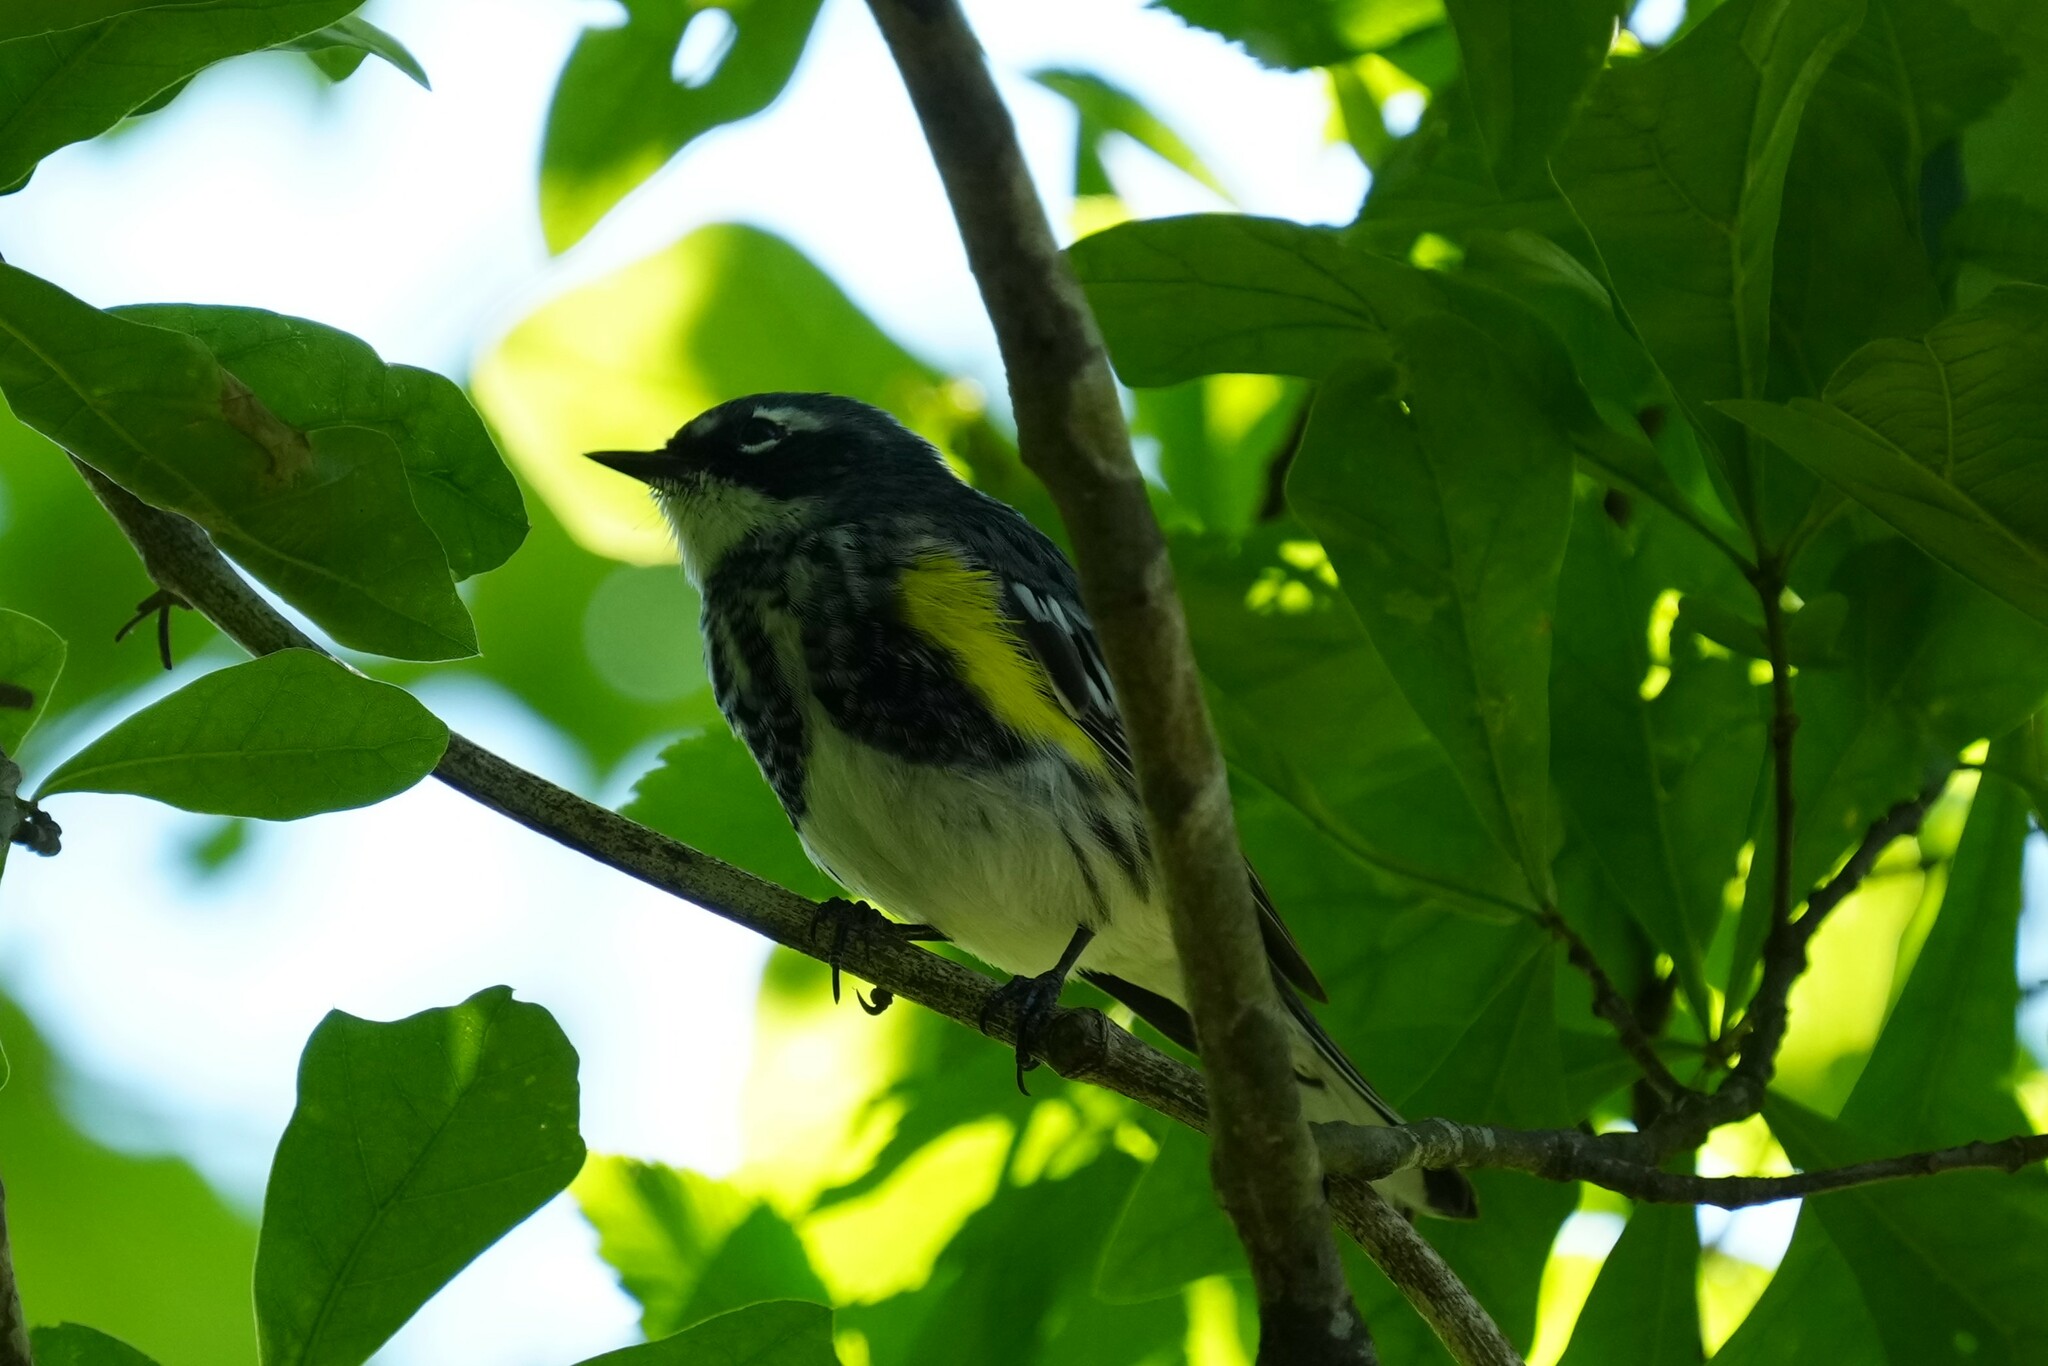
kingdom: Animalia
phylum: Chordata
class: Aves
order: Passeriformes
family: Parulidae
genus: Setophaga
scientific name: Setophaga coronata
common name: Myrtle warbler
